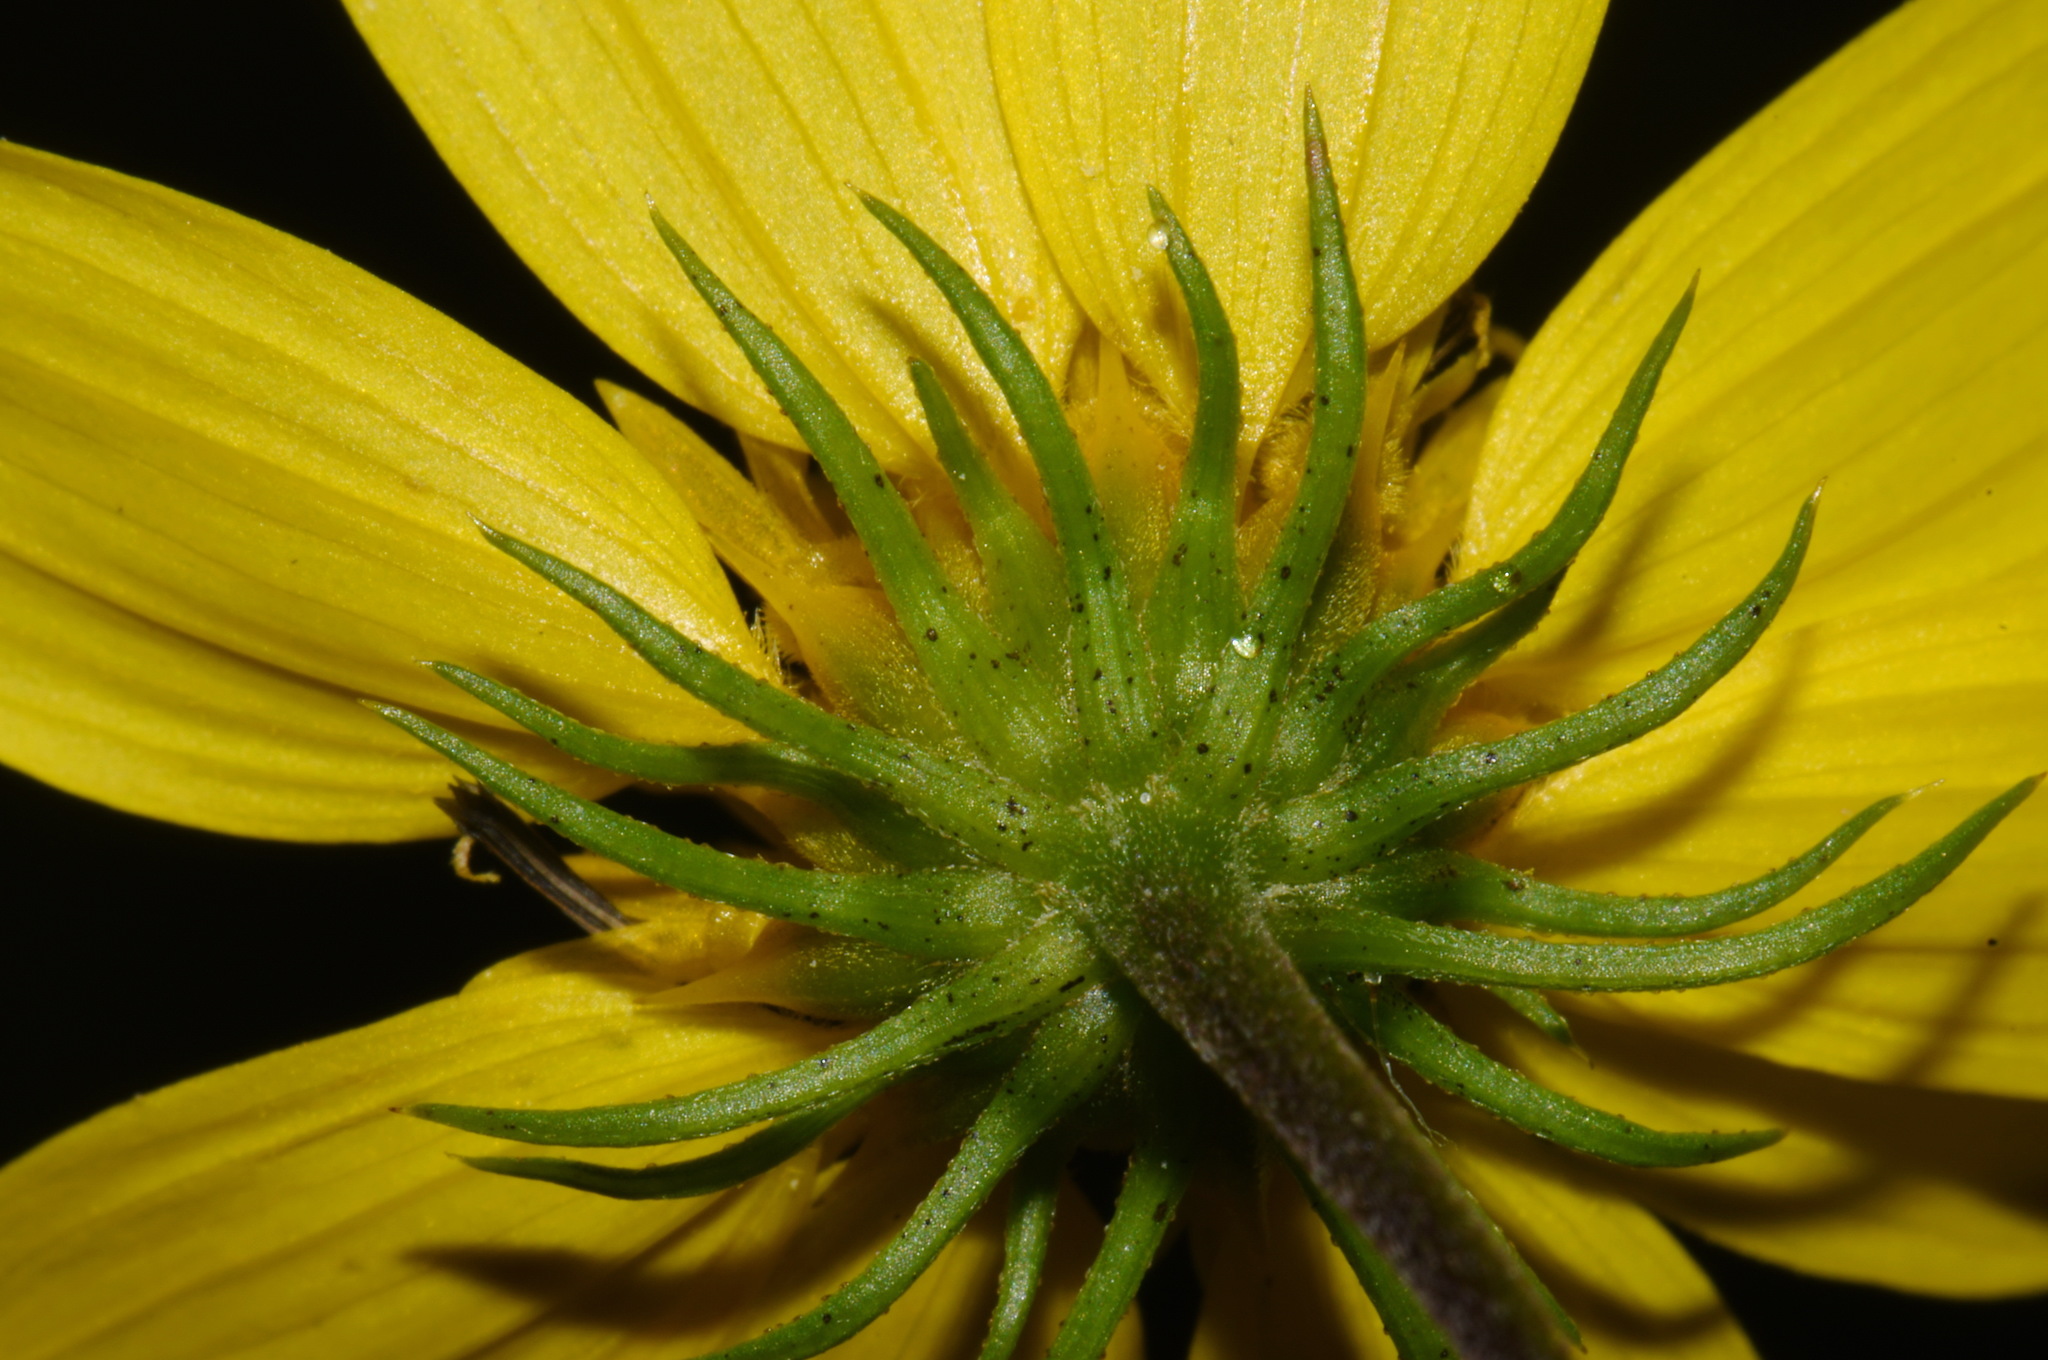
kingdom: Plantae
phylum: Tracheophyta
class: Magnoliopsida
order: Asterales
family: Asteraceae
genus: Helianthus
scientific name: Helianthus porteri
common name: Porter's sunflower
